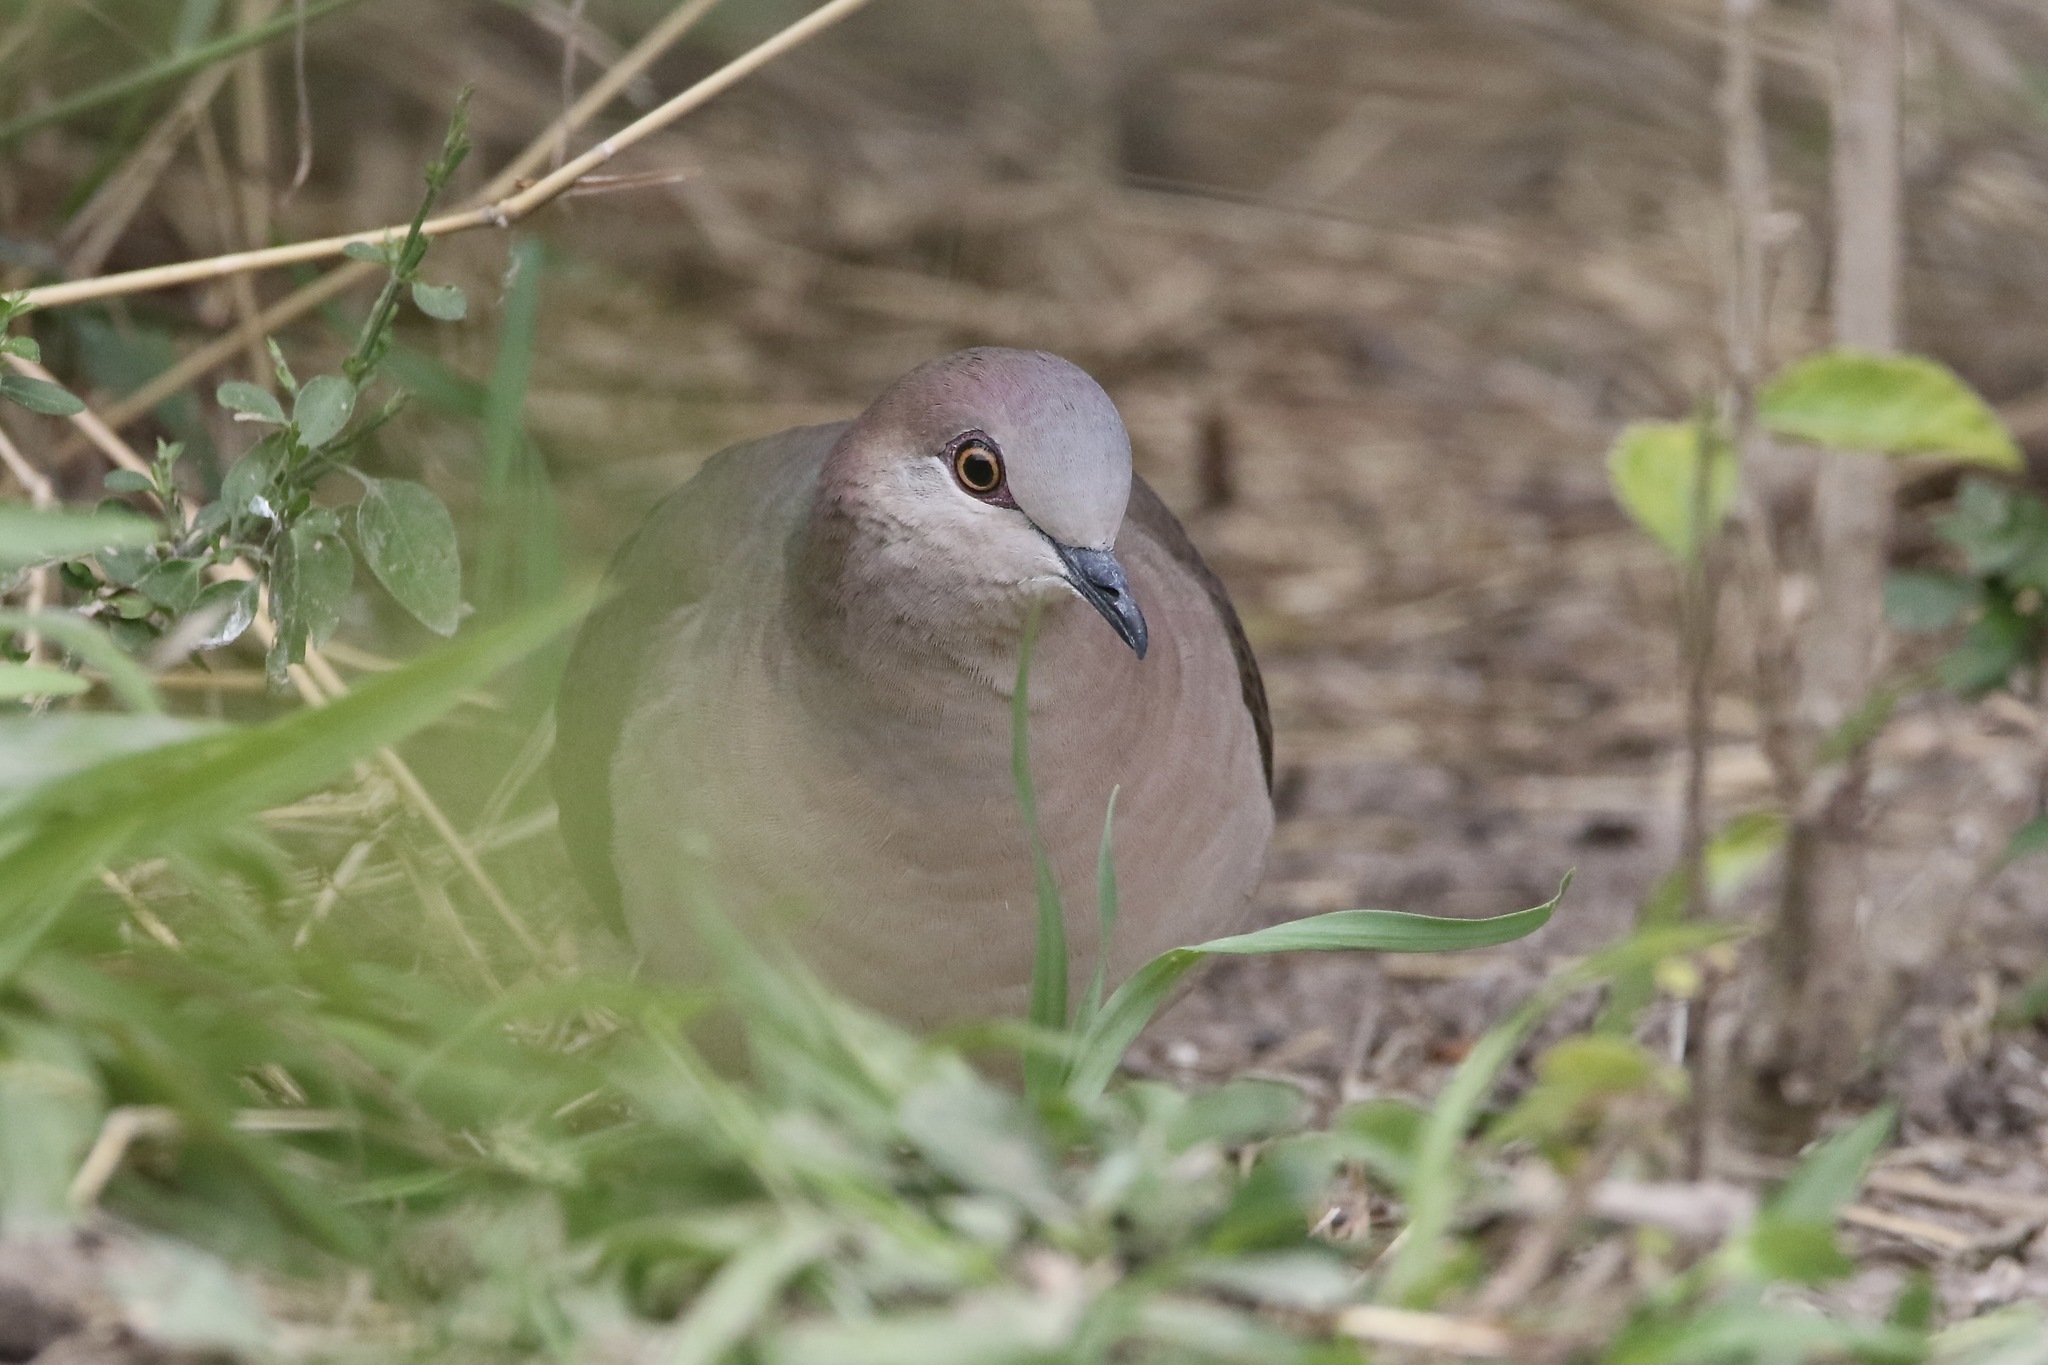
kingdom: Animalia
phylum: Chordata
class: Aves
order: Columbiformes
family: Columbidae
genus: Leptotila
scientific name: Leptotila verreauxi
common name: White-tipped dove
